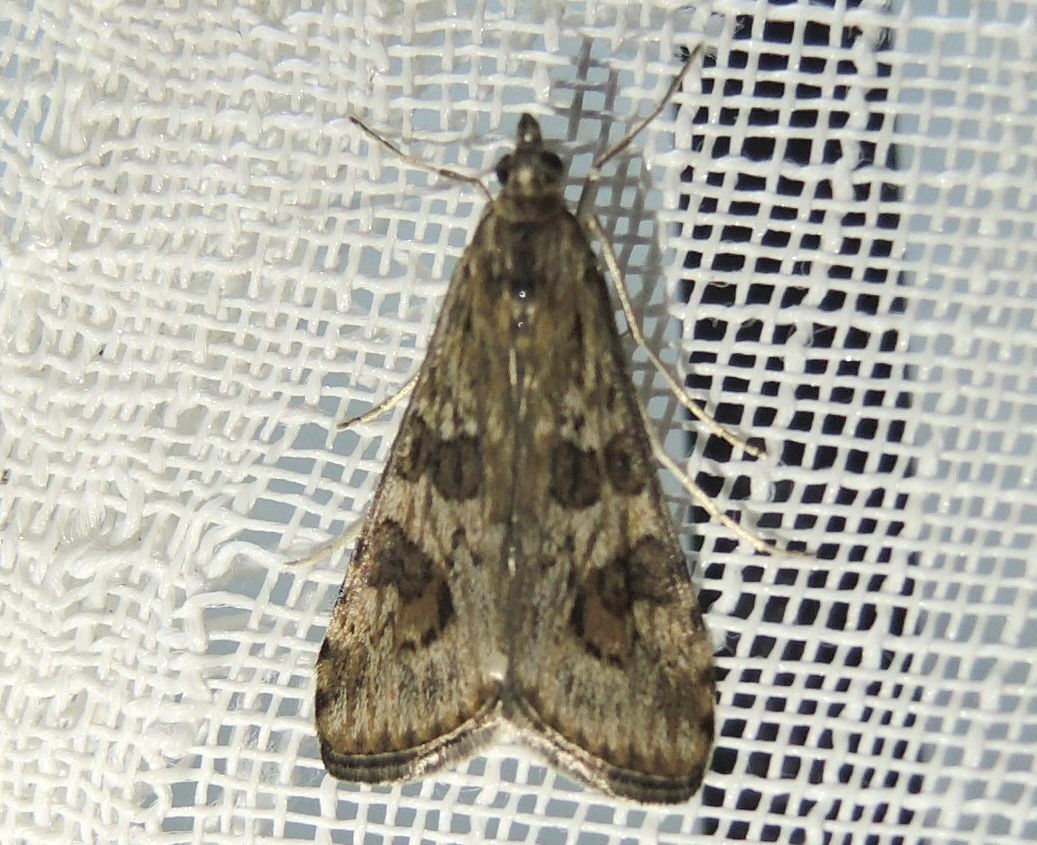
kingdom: Animalia
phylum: Arthropoda
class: Insecta
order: Lepidoptera
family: Crambidae
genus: Nomophila
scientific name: Nomophila noctuella
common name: Rush veneer
